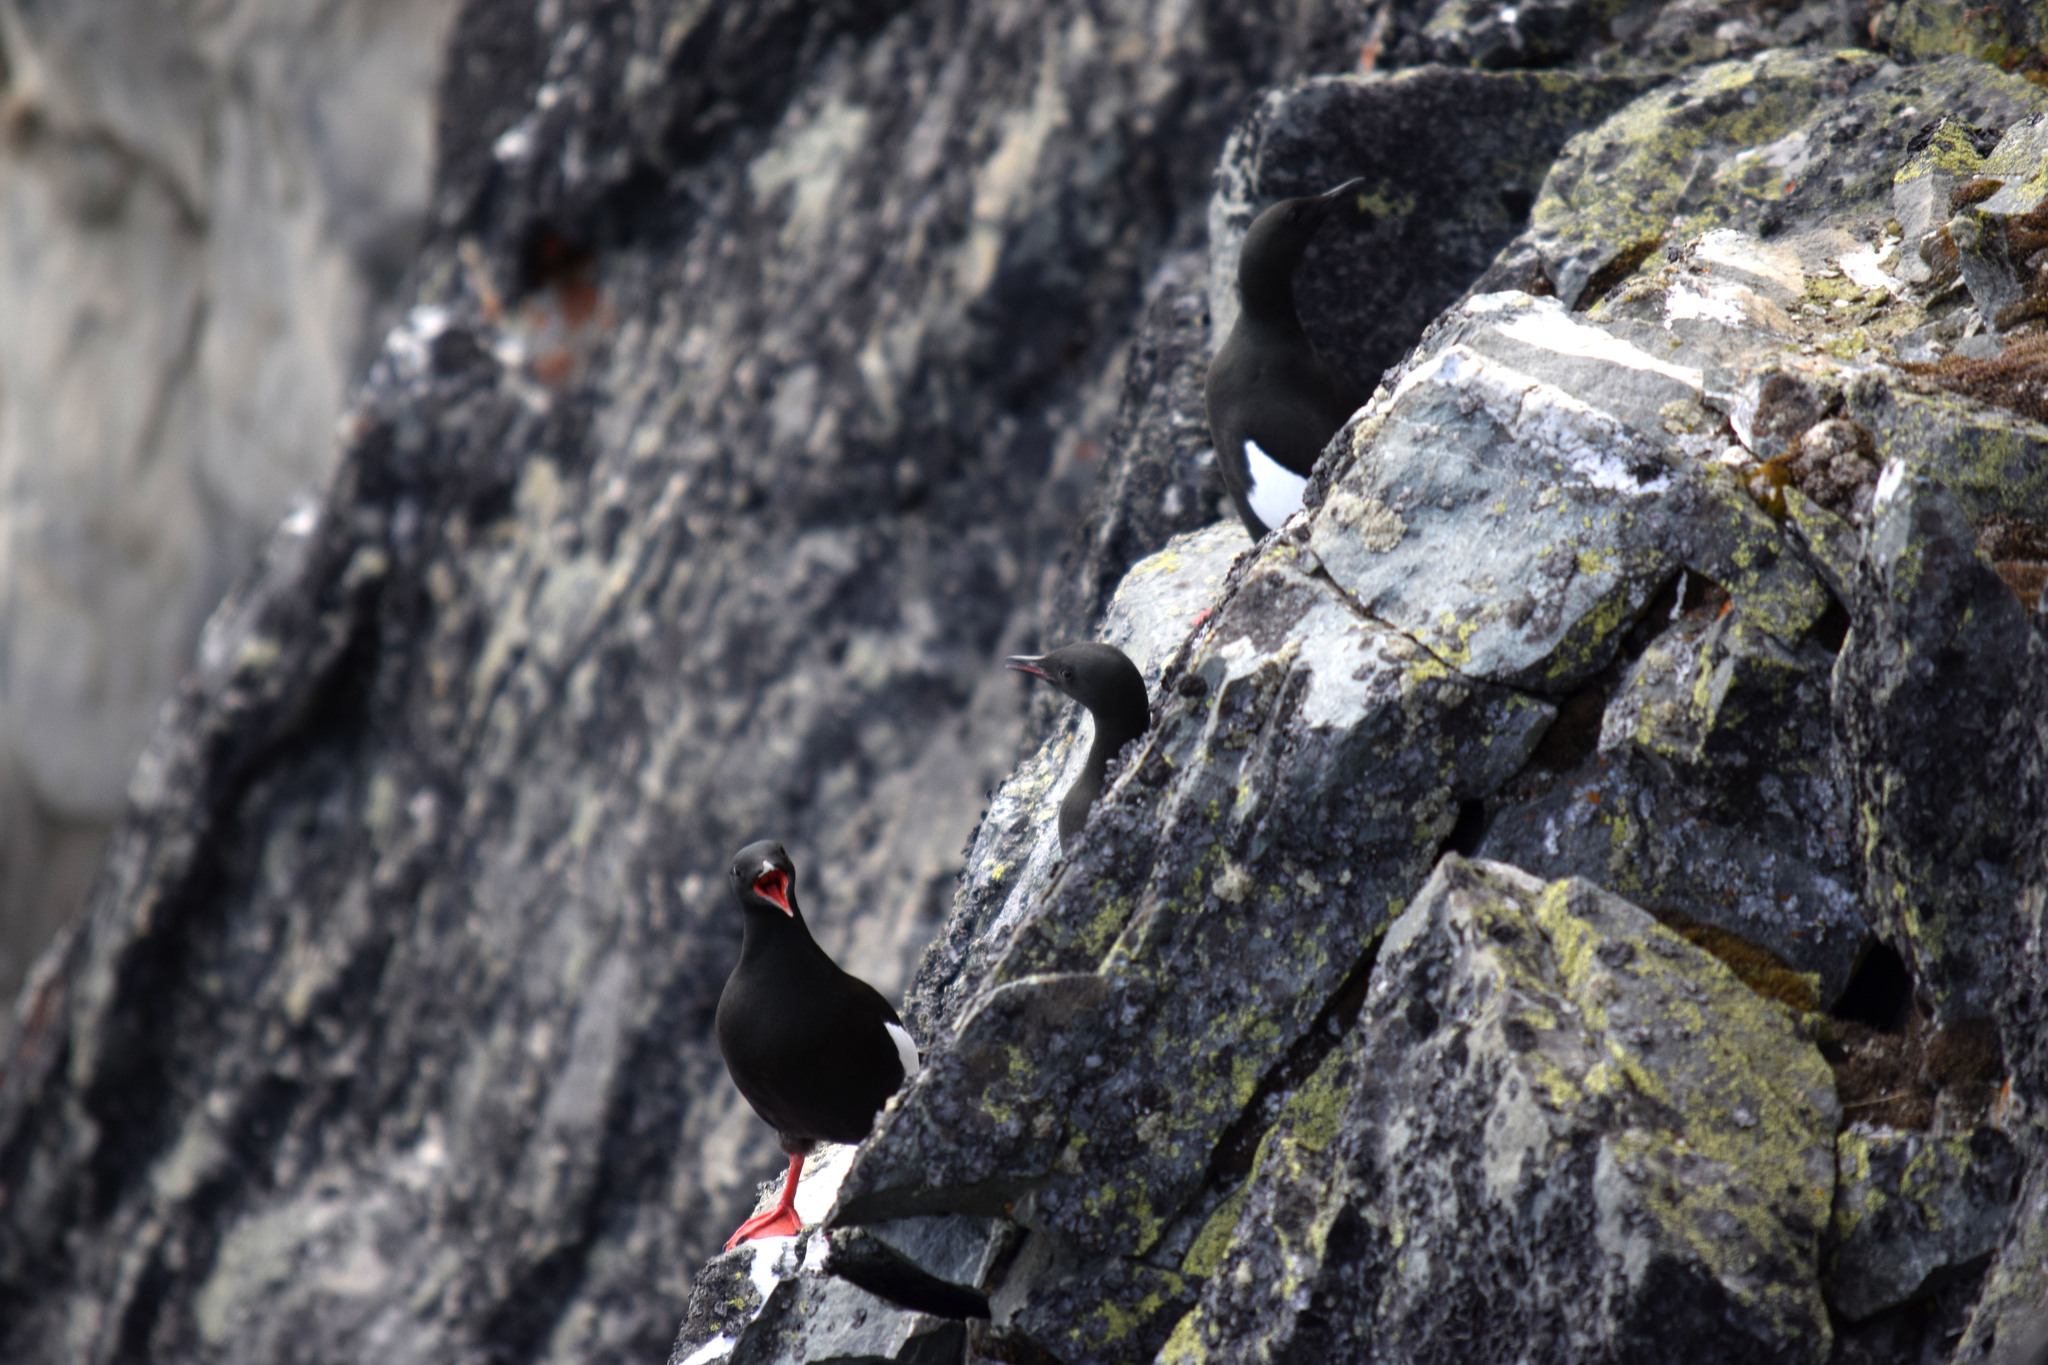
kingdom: Animalia
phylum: Chordata
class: Aves
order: Charadriiformes
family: Alcidae
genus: Cepphus
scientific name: Cepphus grylle
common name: Black guillemot
